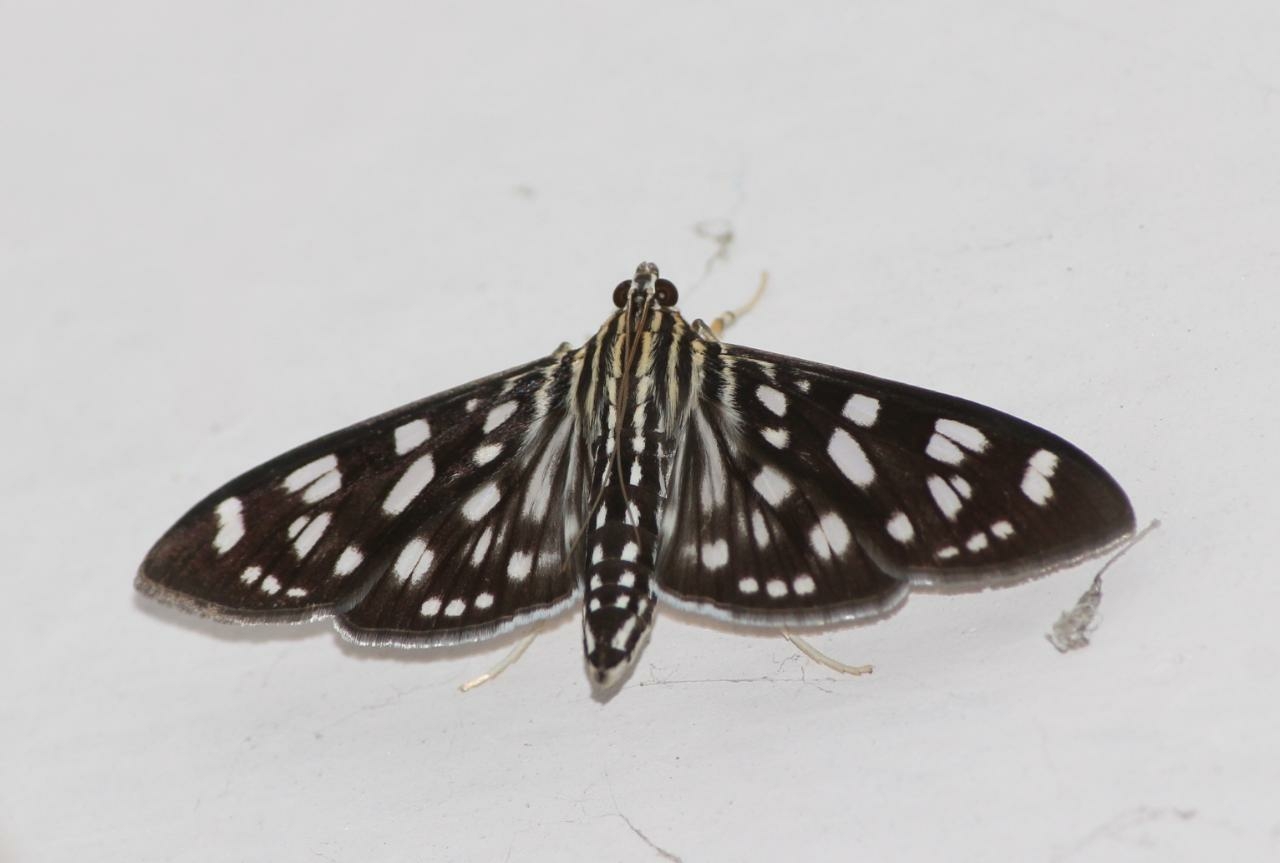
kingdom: Animalia
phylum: Arthropoda
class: Insecta
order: Lepidoptera
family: Crambidae
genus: Pygospila
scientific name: Pygospila tyres
